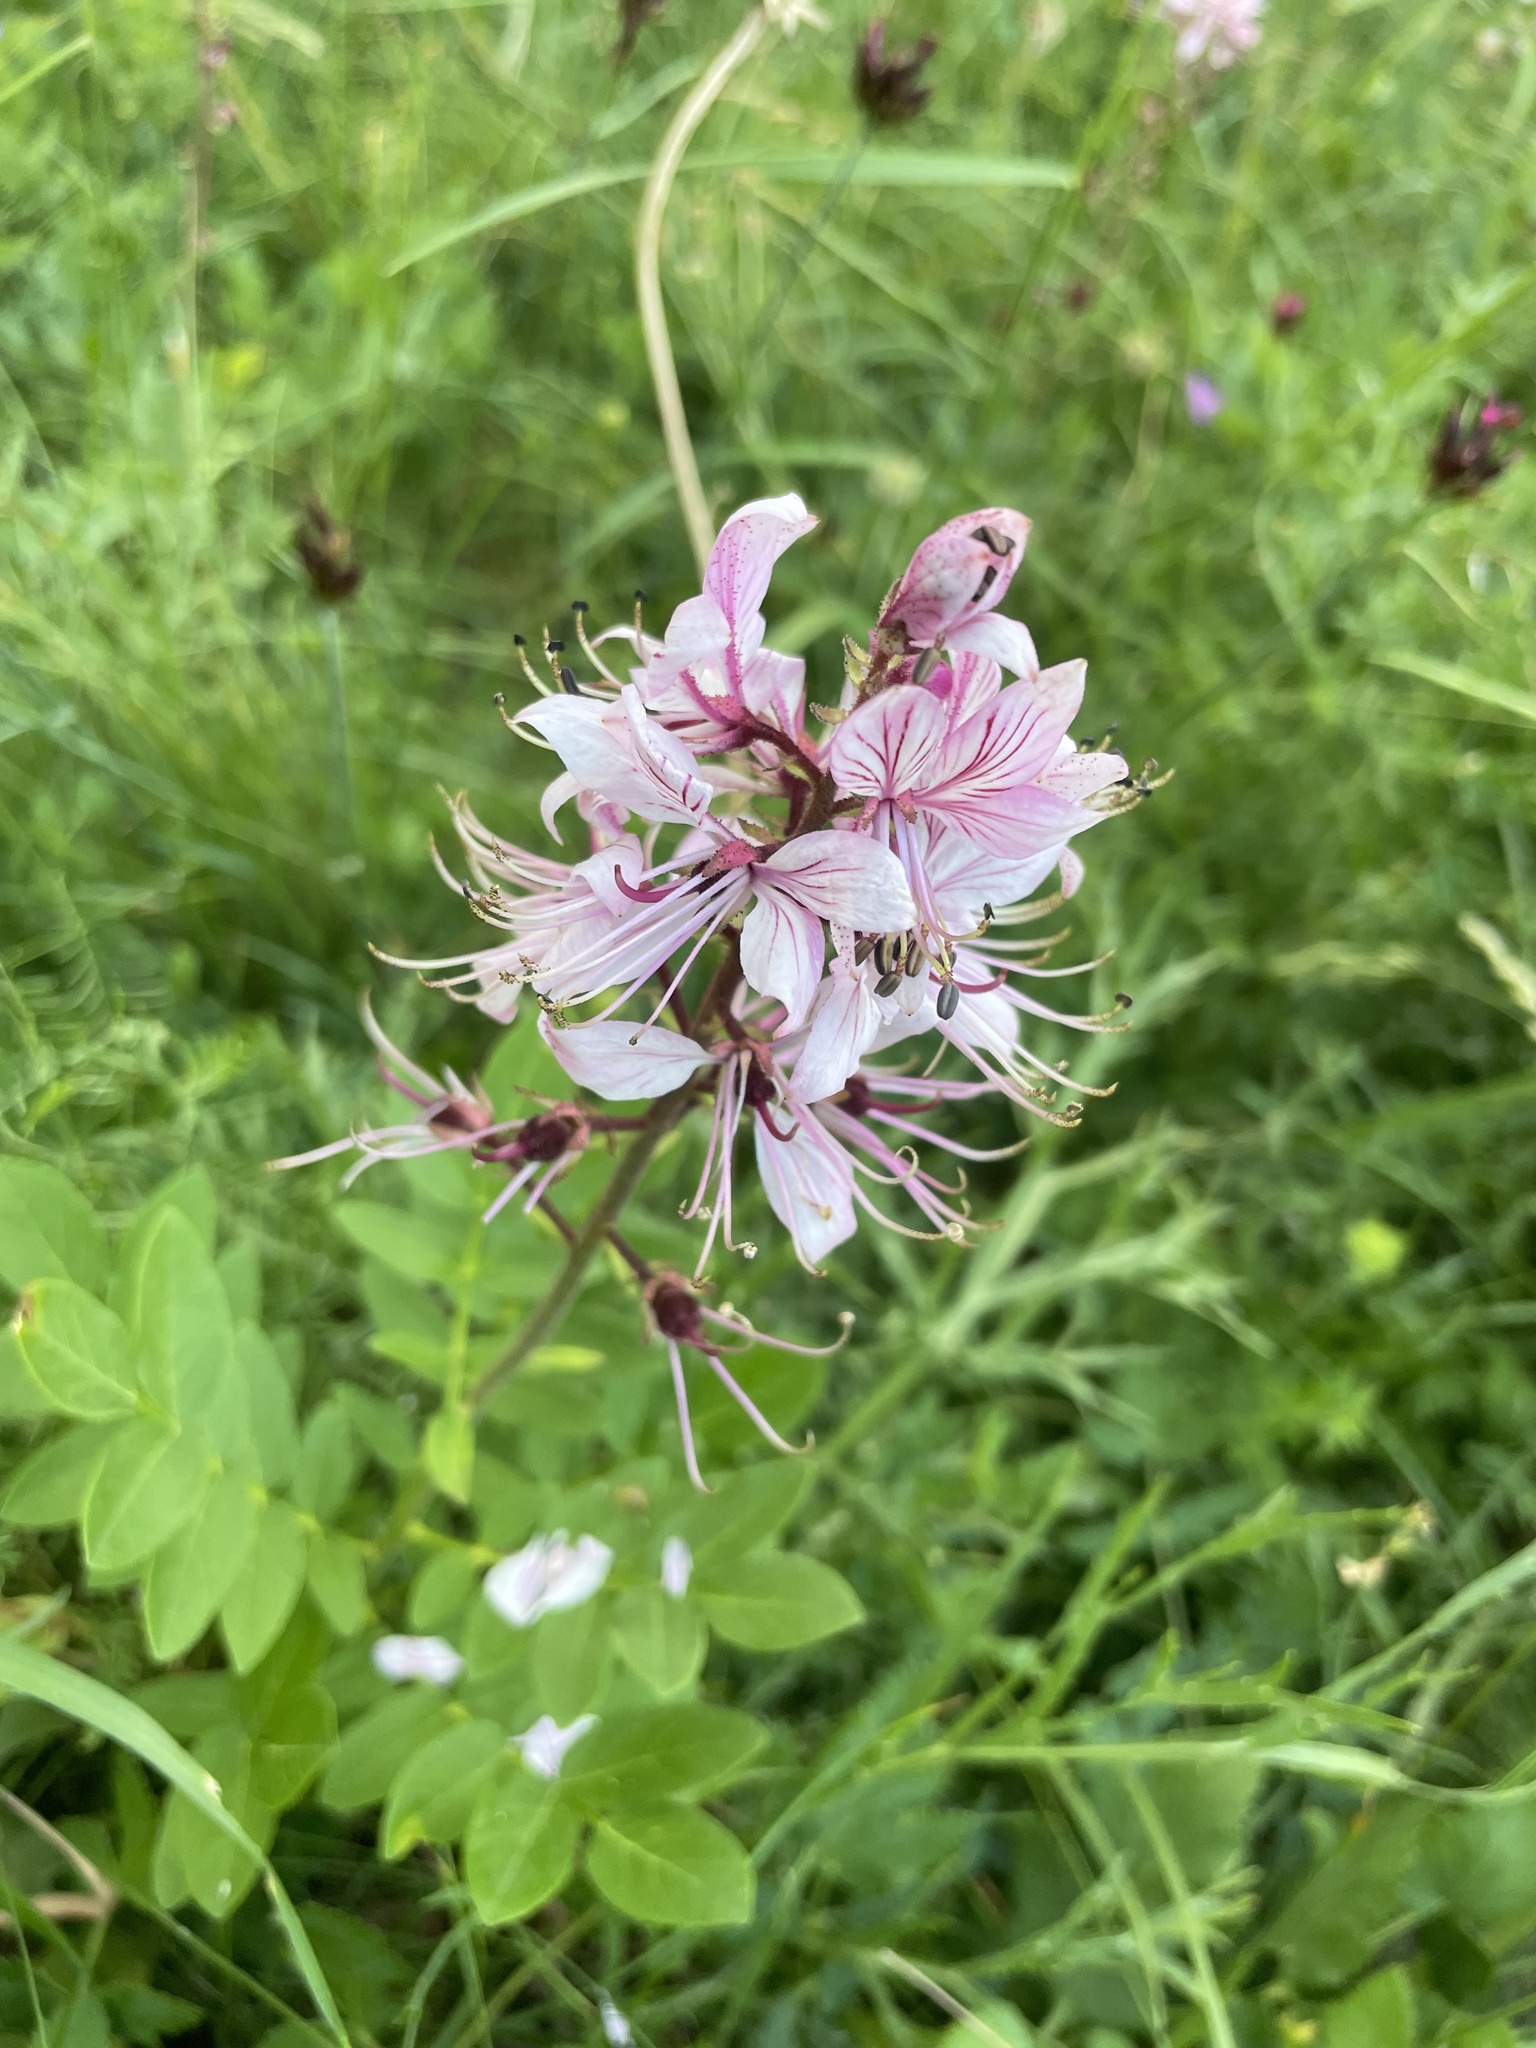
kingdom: Plantae
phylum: Tracheophyta
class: Magnoliopsida
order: Sapindales
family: Rutaceae
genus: Dictamnus
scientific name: Dictamnus albus
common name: Gasplant
